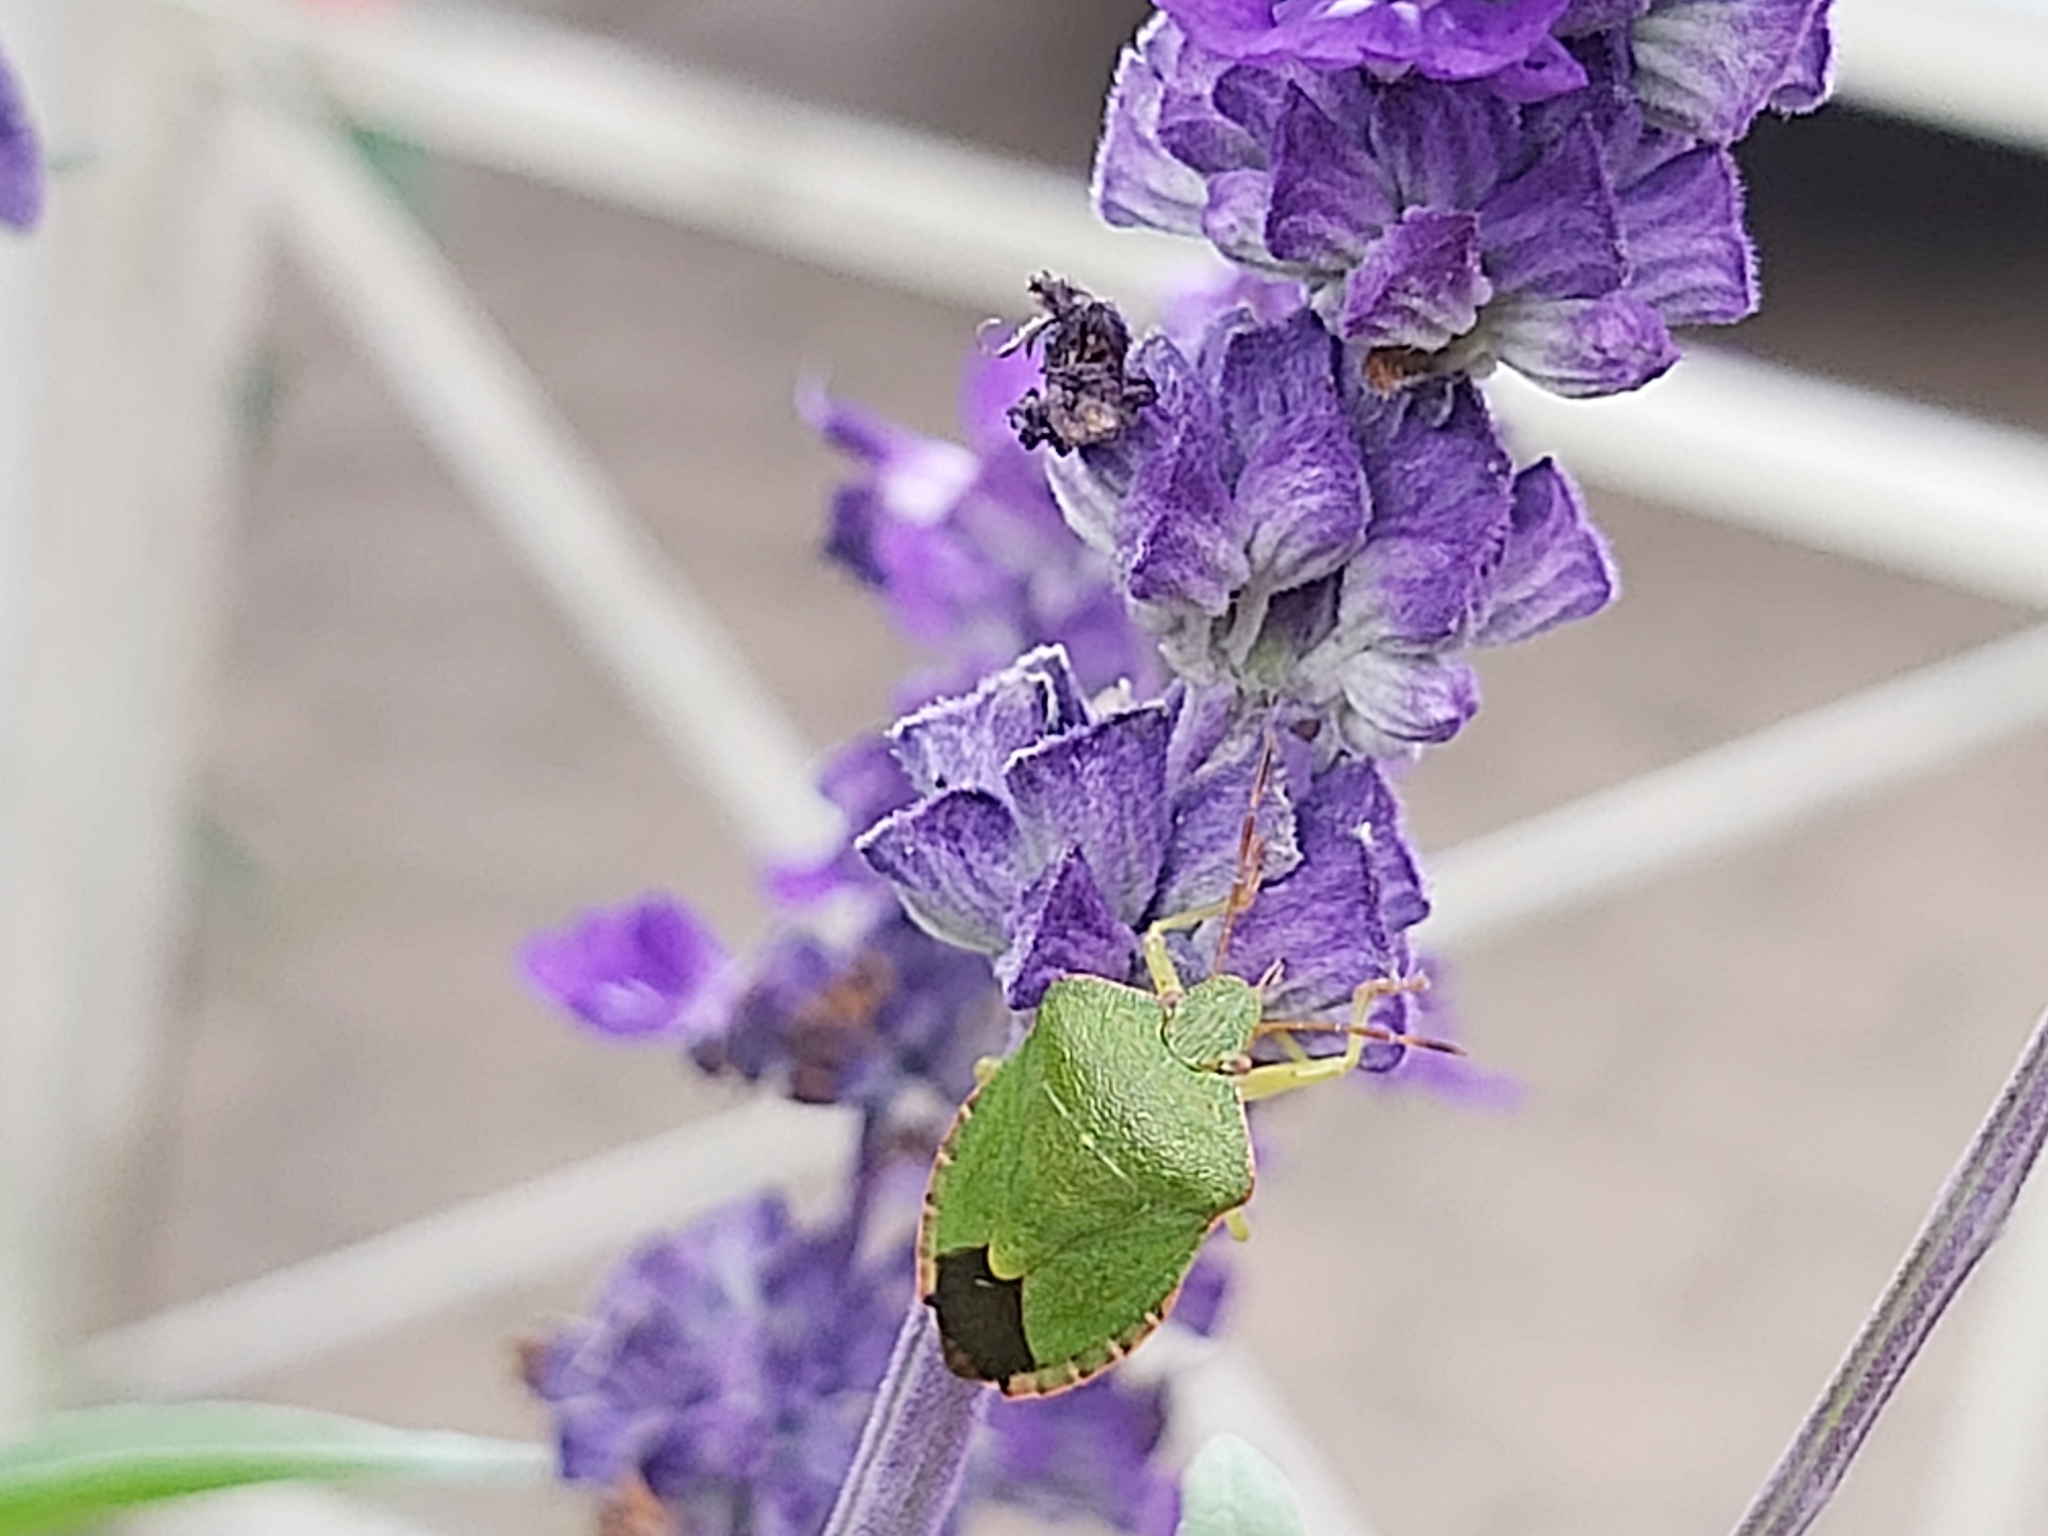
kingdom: Animalia
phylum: Arthropoda
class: Insecta
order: Hemiptera
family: Pentatomidae
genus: Palomena
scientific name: Palomena prasina
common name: Green shieldbug
